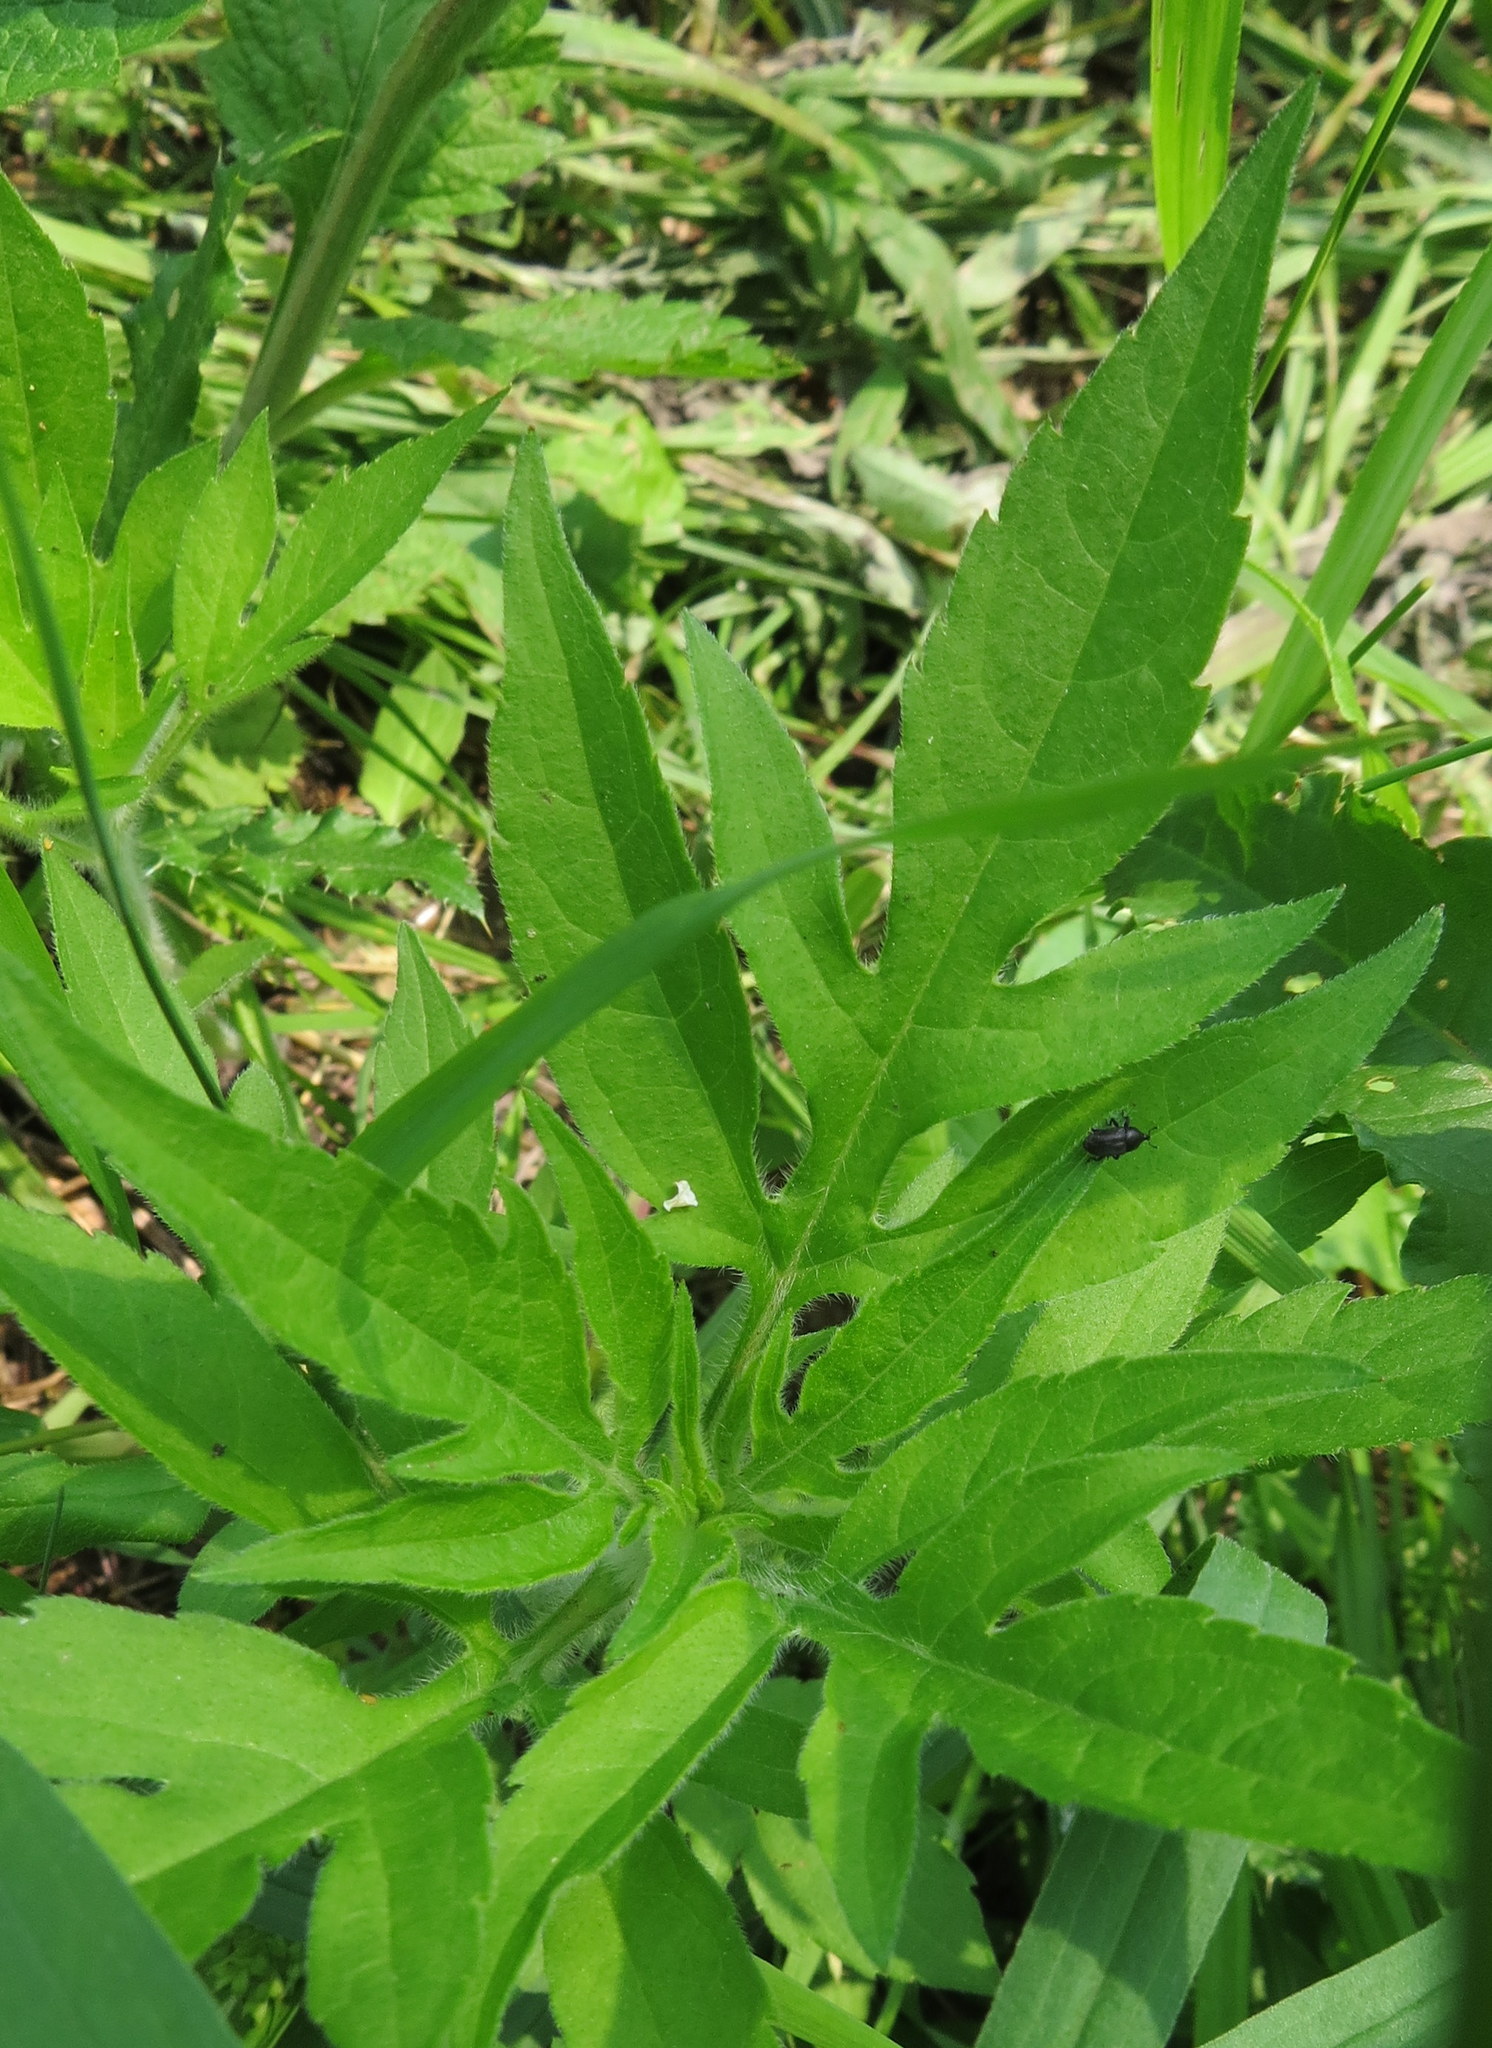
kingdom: Plantae
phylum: Tracheophyta
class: Magnoliopsida
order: Asterales
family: Asteraceae
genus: Ambrosia
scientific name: Ambrosia trifida
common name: Giant ragweed
